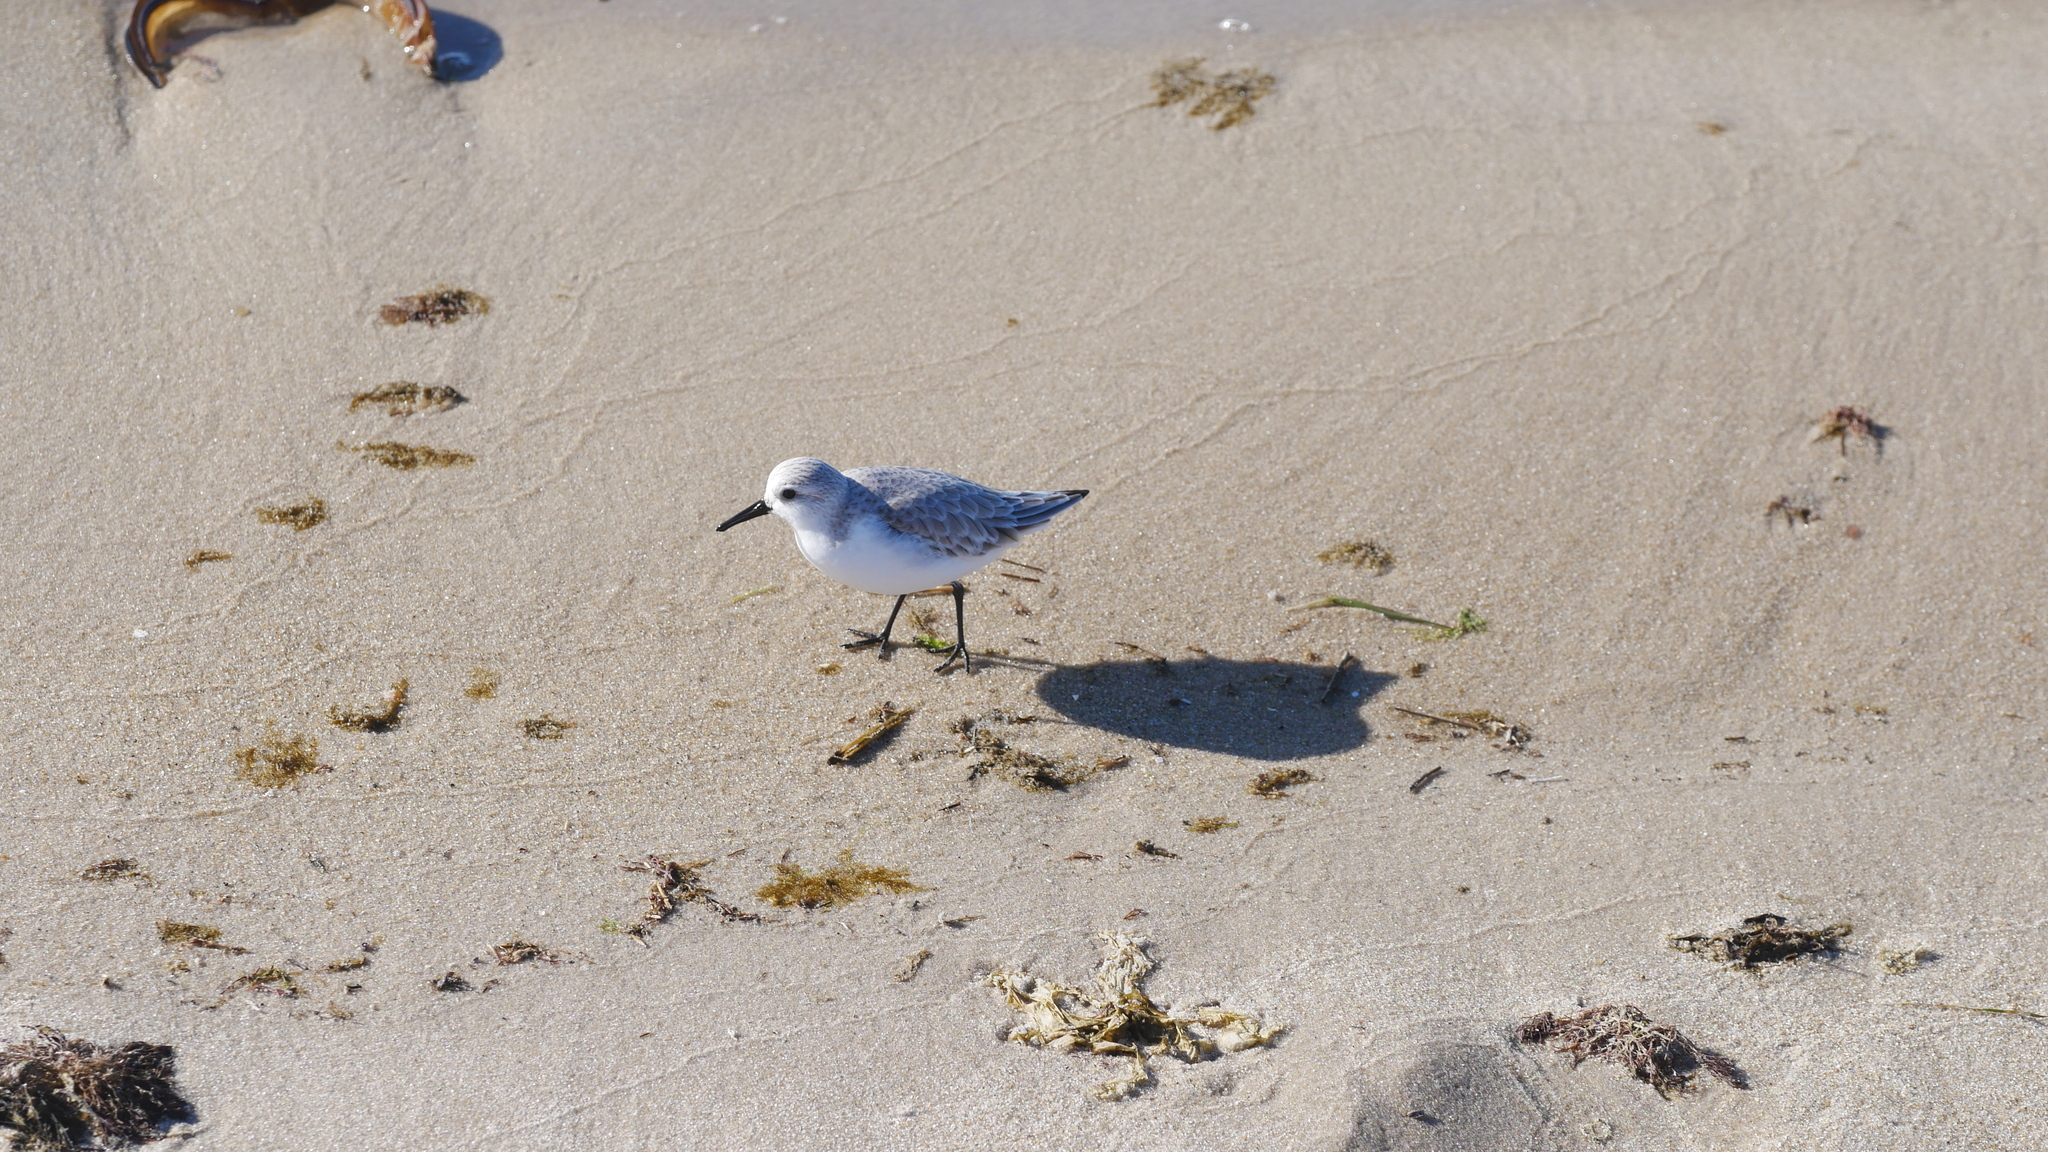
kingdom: Animalia
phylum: Chordata
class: Aves
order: Charadriiformes
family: Scolopacidae
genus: Calidris
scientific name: Calidris alba
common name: Sanderling
